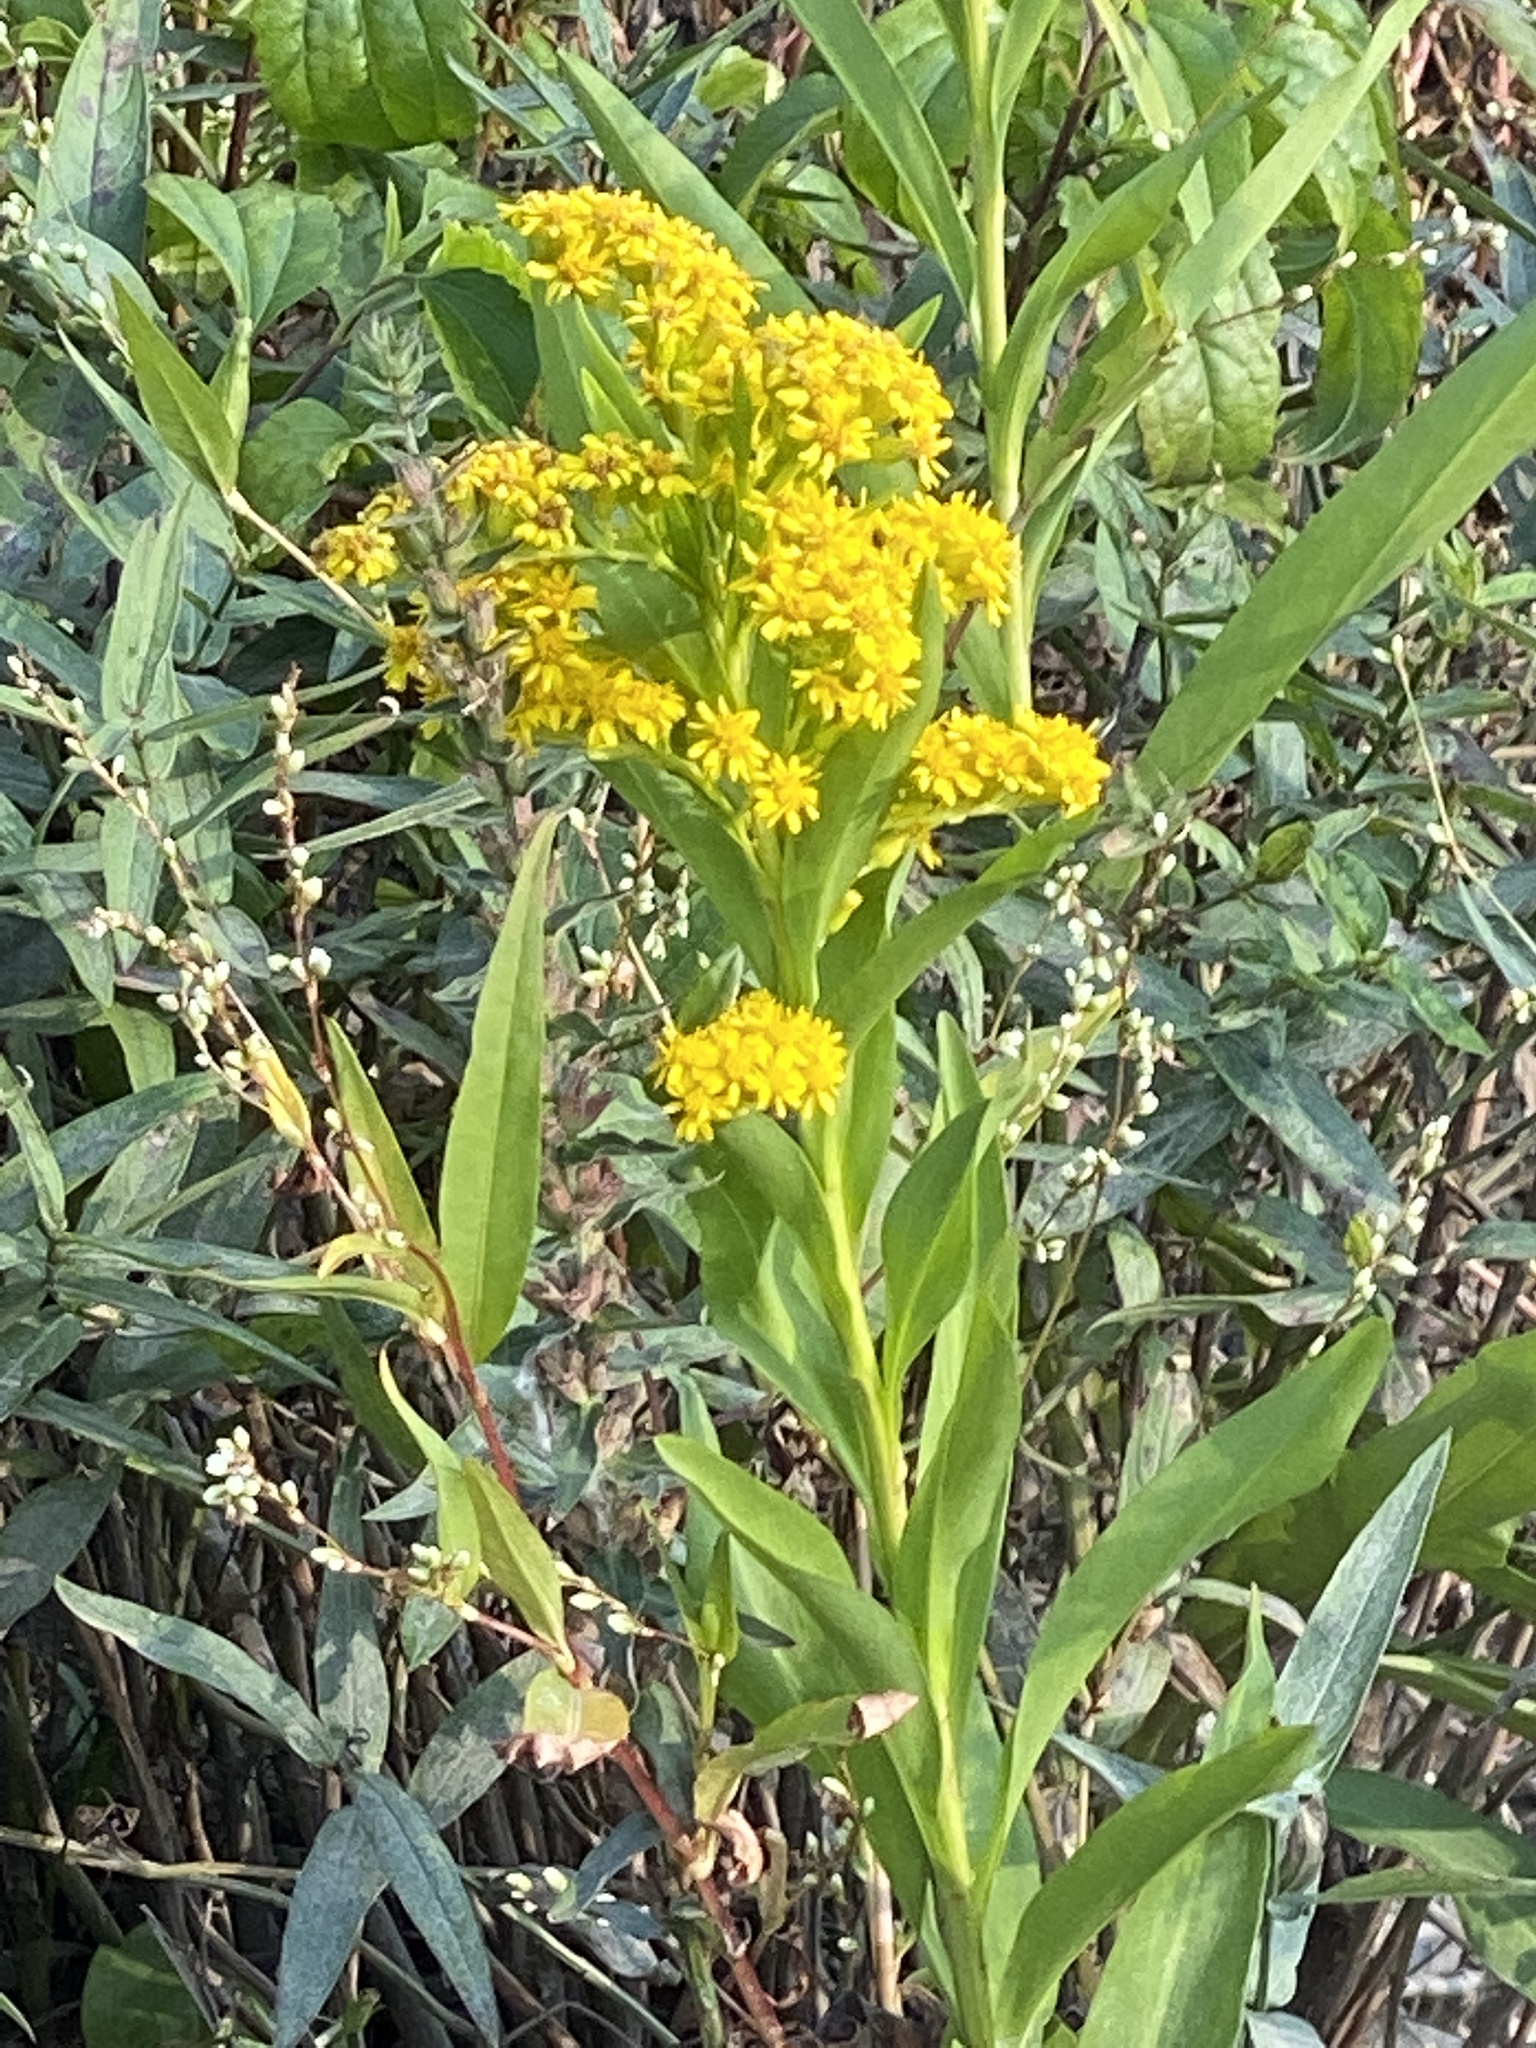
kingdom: Plantae
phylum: Tracheophyta
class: Magnoliopsida
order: Asterales
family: Asteraceae
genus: Solidago
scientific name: Solidago sempervirens
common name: Salt-marsh goldenrod
